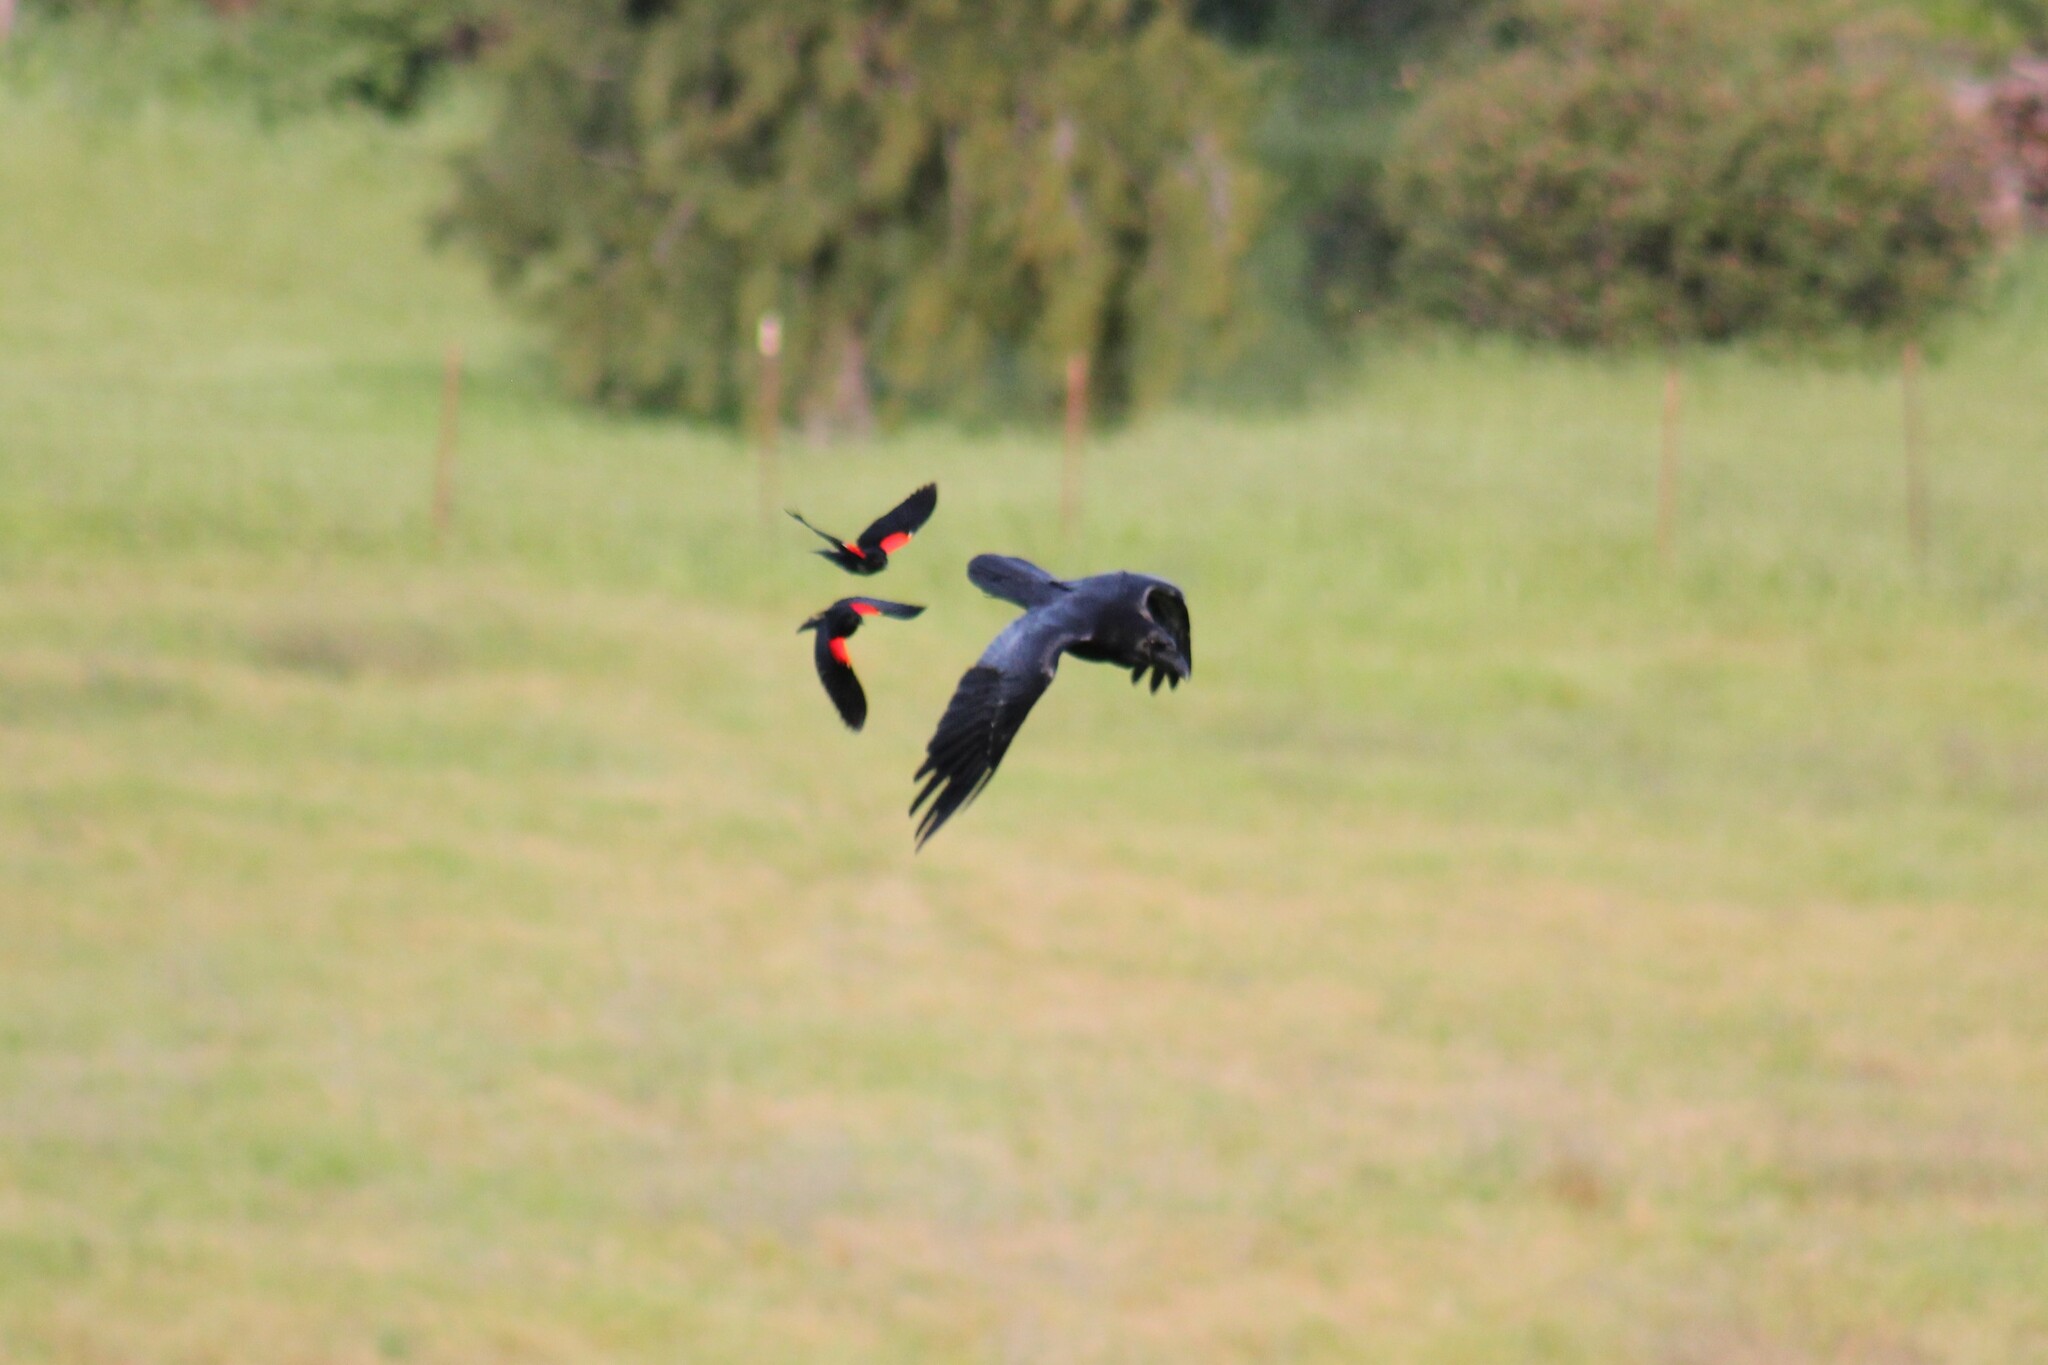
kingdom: Animalia
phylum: Chordata
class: Aves
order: Passeriformes
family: Icteridae
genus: Agelaius
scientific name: Agelaius phoeniceus
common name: Red-winged blackbird
